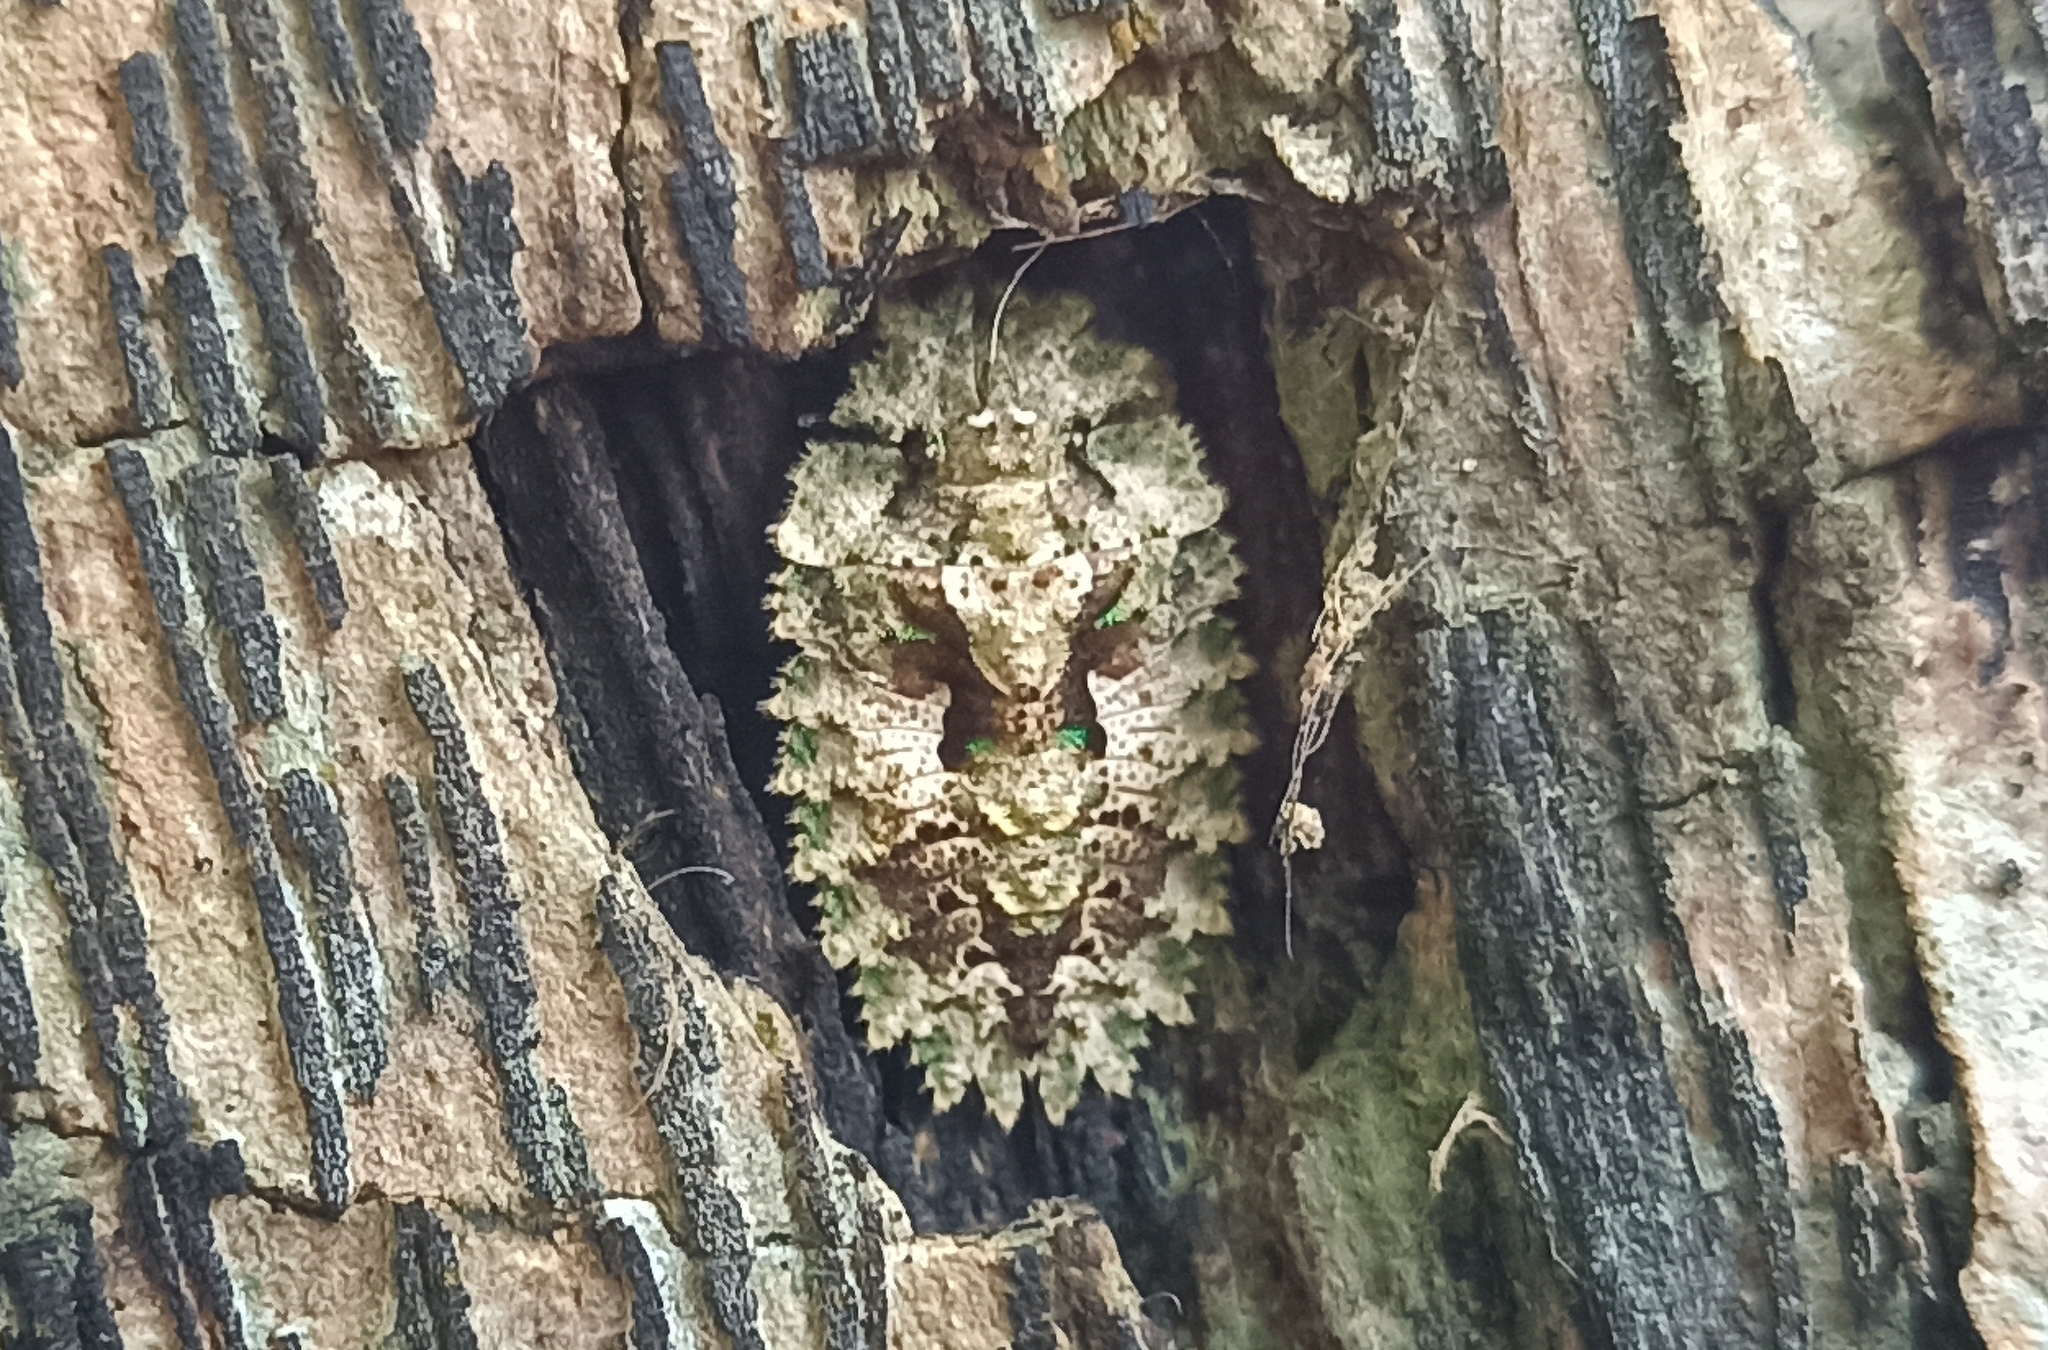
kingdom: Animalia
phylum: Arthropoda
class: Insecta
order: Hemiptera
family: Phloeidae
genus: Phloeophana
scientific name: Phloeophana longirostris
